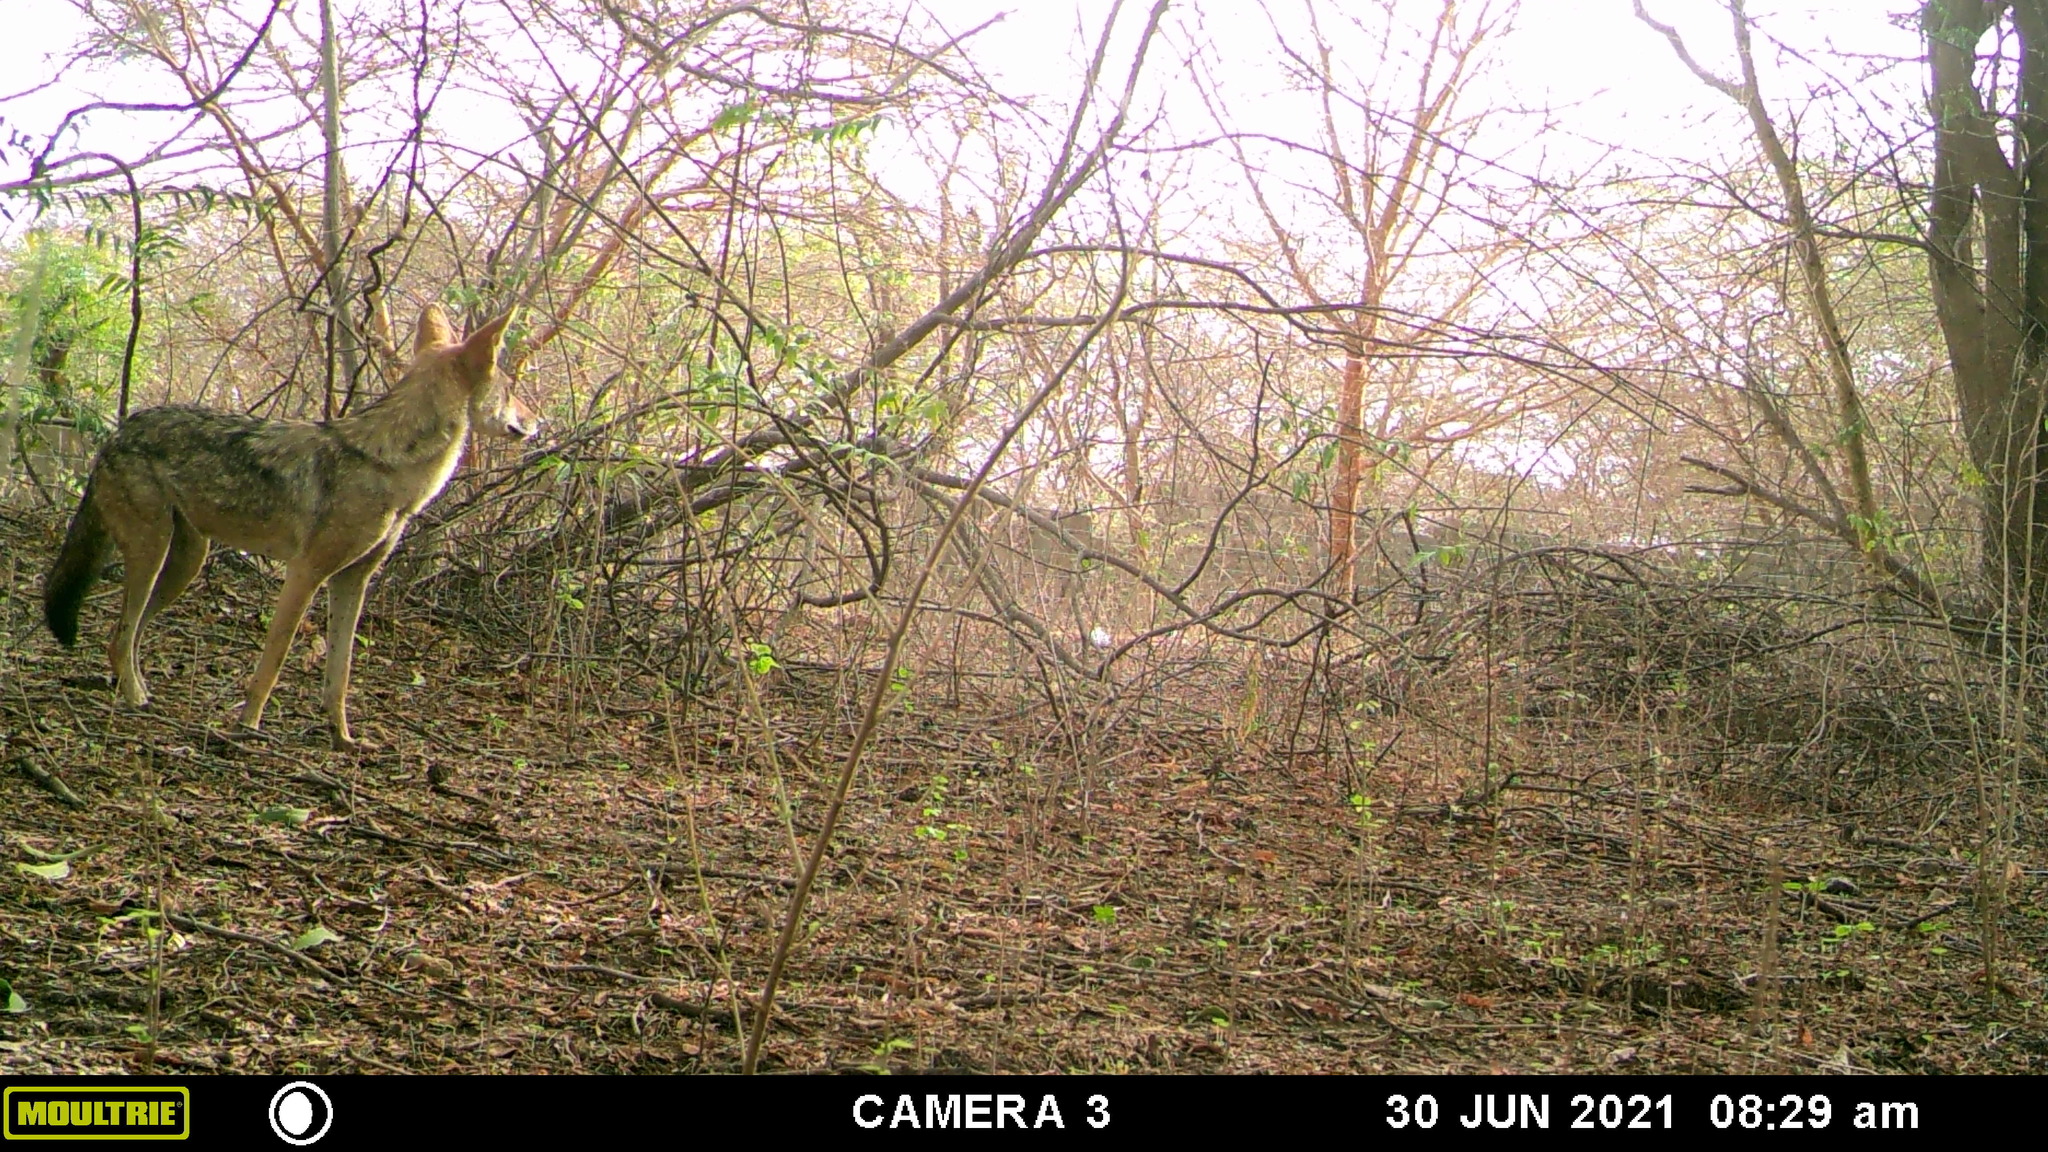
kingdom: Animalia
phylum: Chordata
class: Mammalia
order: Carnivora
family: Canidae
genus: Canis
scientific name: Canis lupaster
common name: African golden wolf
